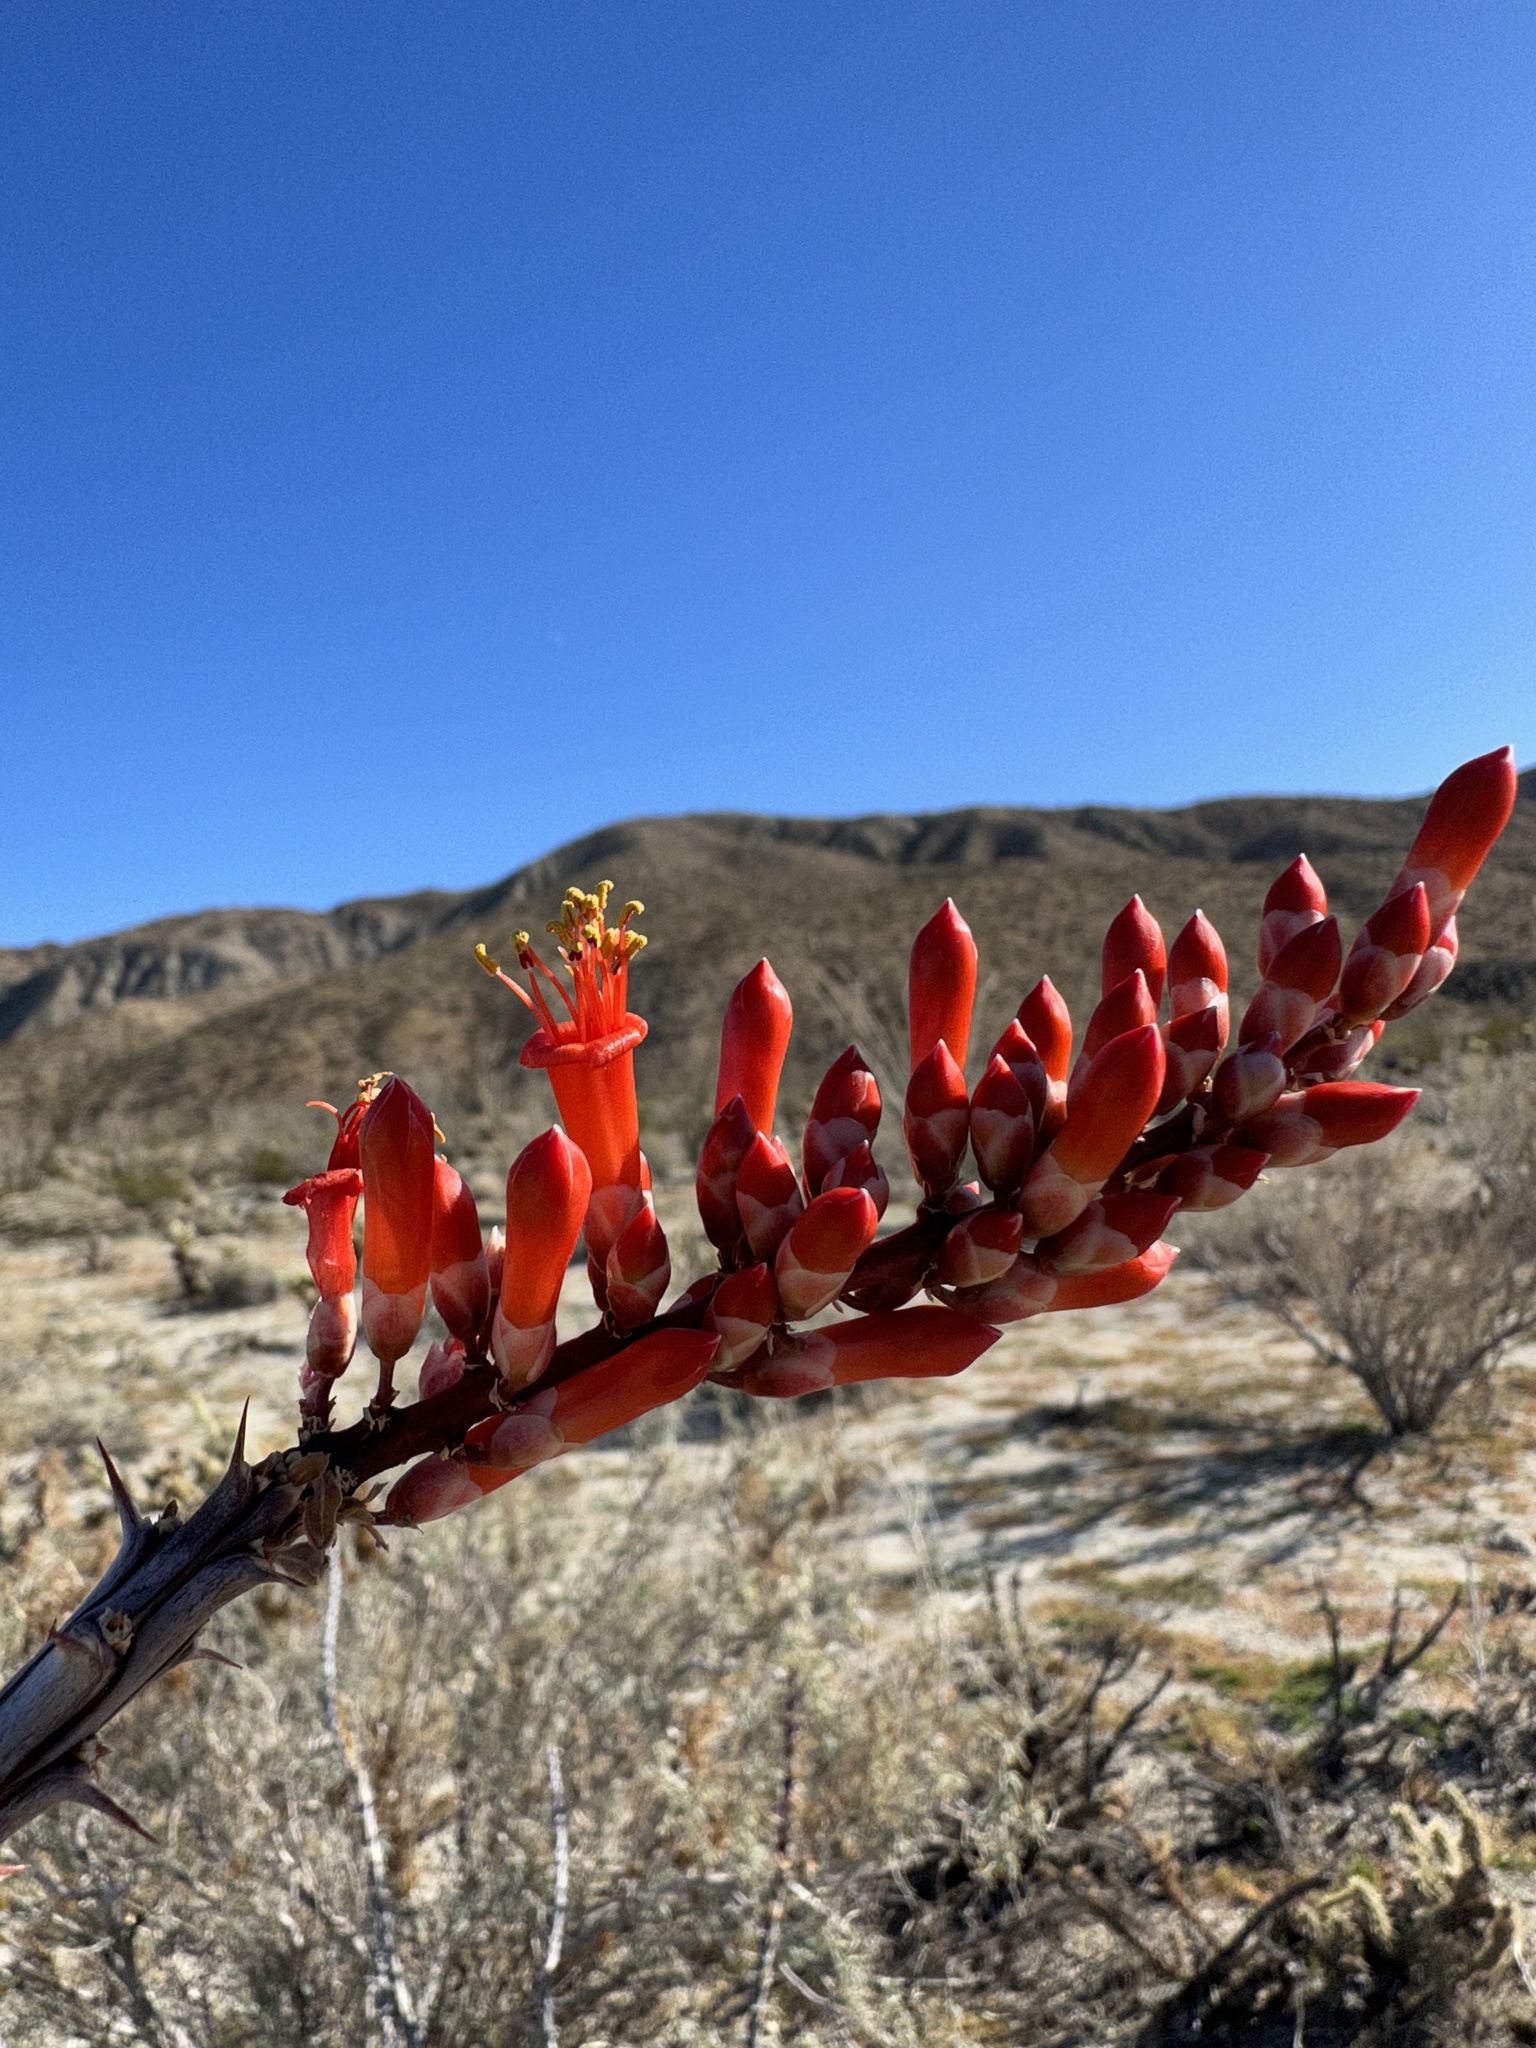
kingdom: Plantae
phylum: Tracheophyta
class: Magnoliopsida
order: Ericales
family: Fouquieriaceae
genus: Fouquieria
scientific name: Fouquieria splendens
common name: Vine-cactus
